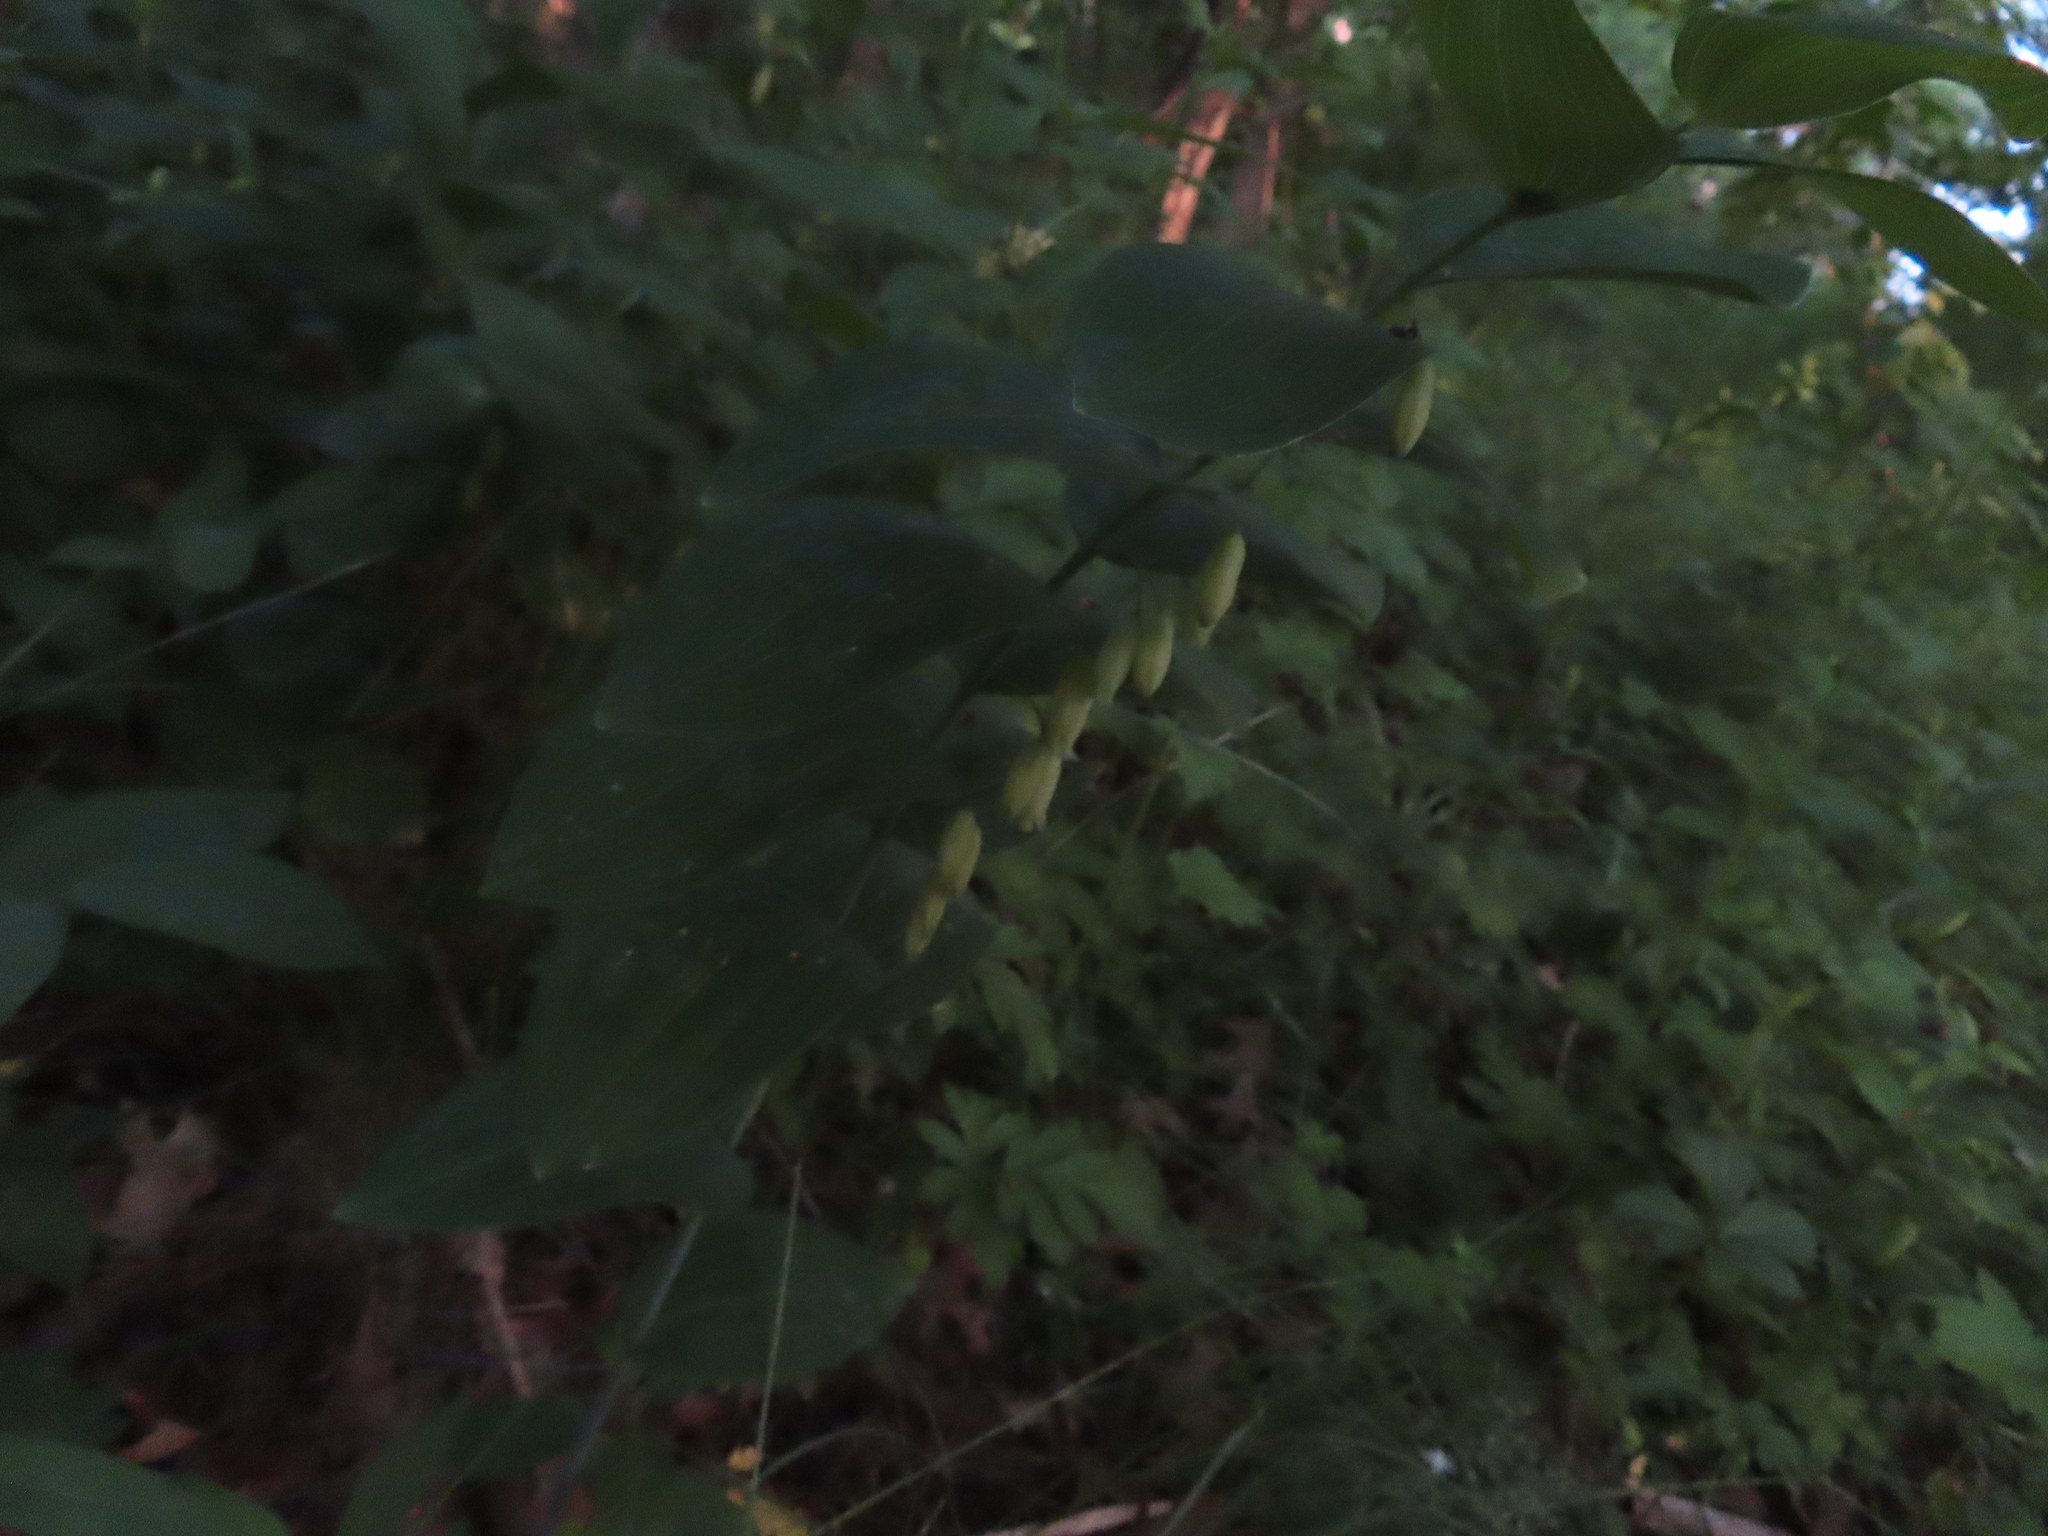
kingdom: Plantae
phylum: Tracheophyta
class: Liliopsida
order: Asparagales
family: Asparagaceae
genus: Polygonatum
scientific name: Polygonatum biflorum
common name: American solomon's-seal
